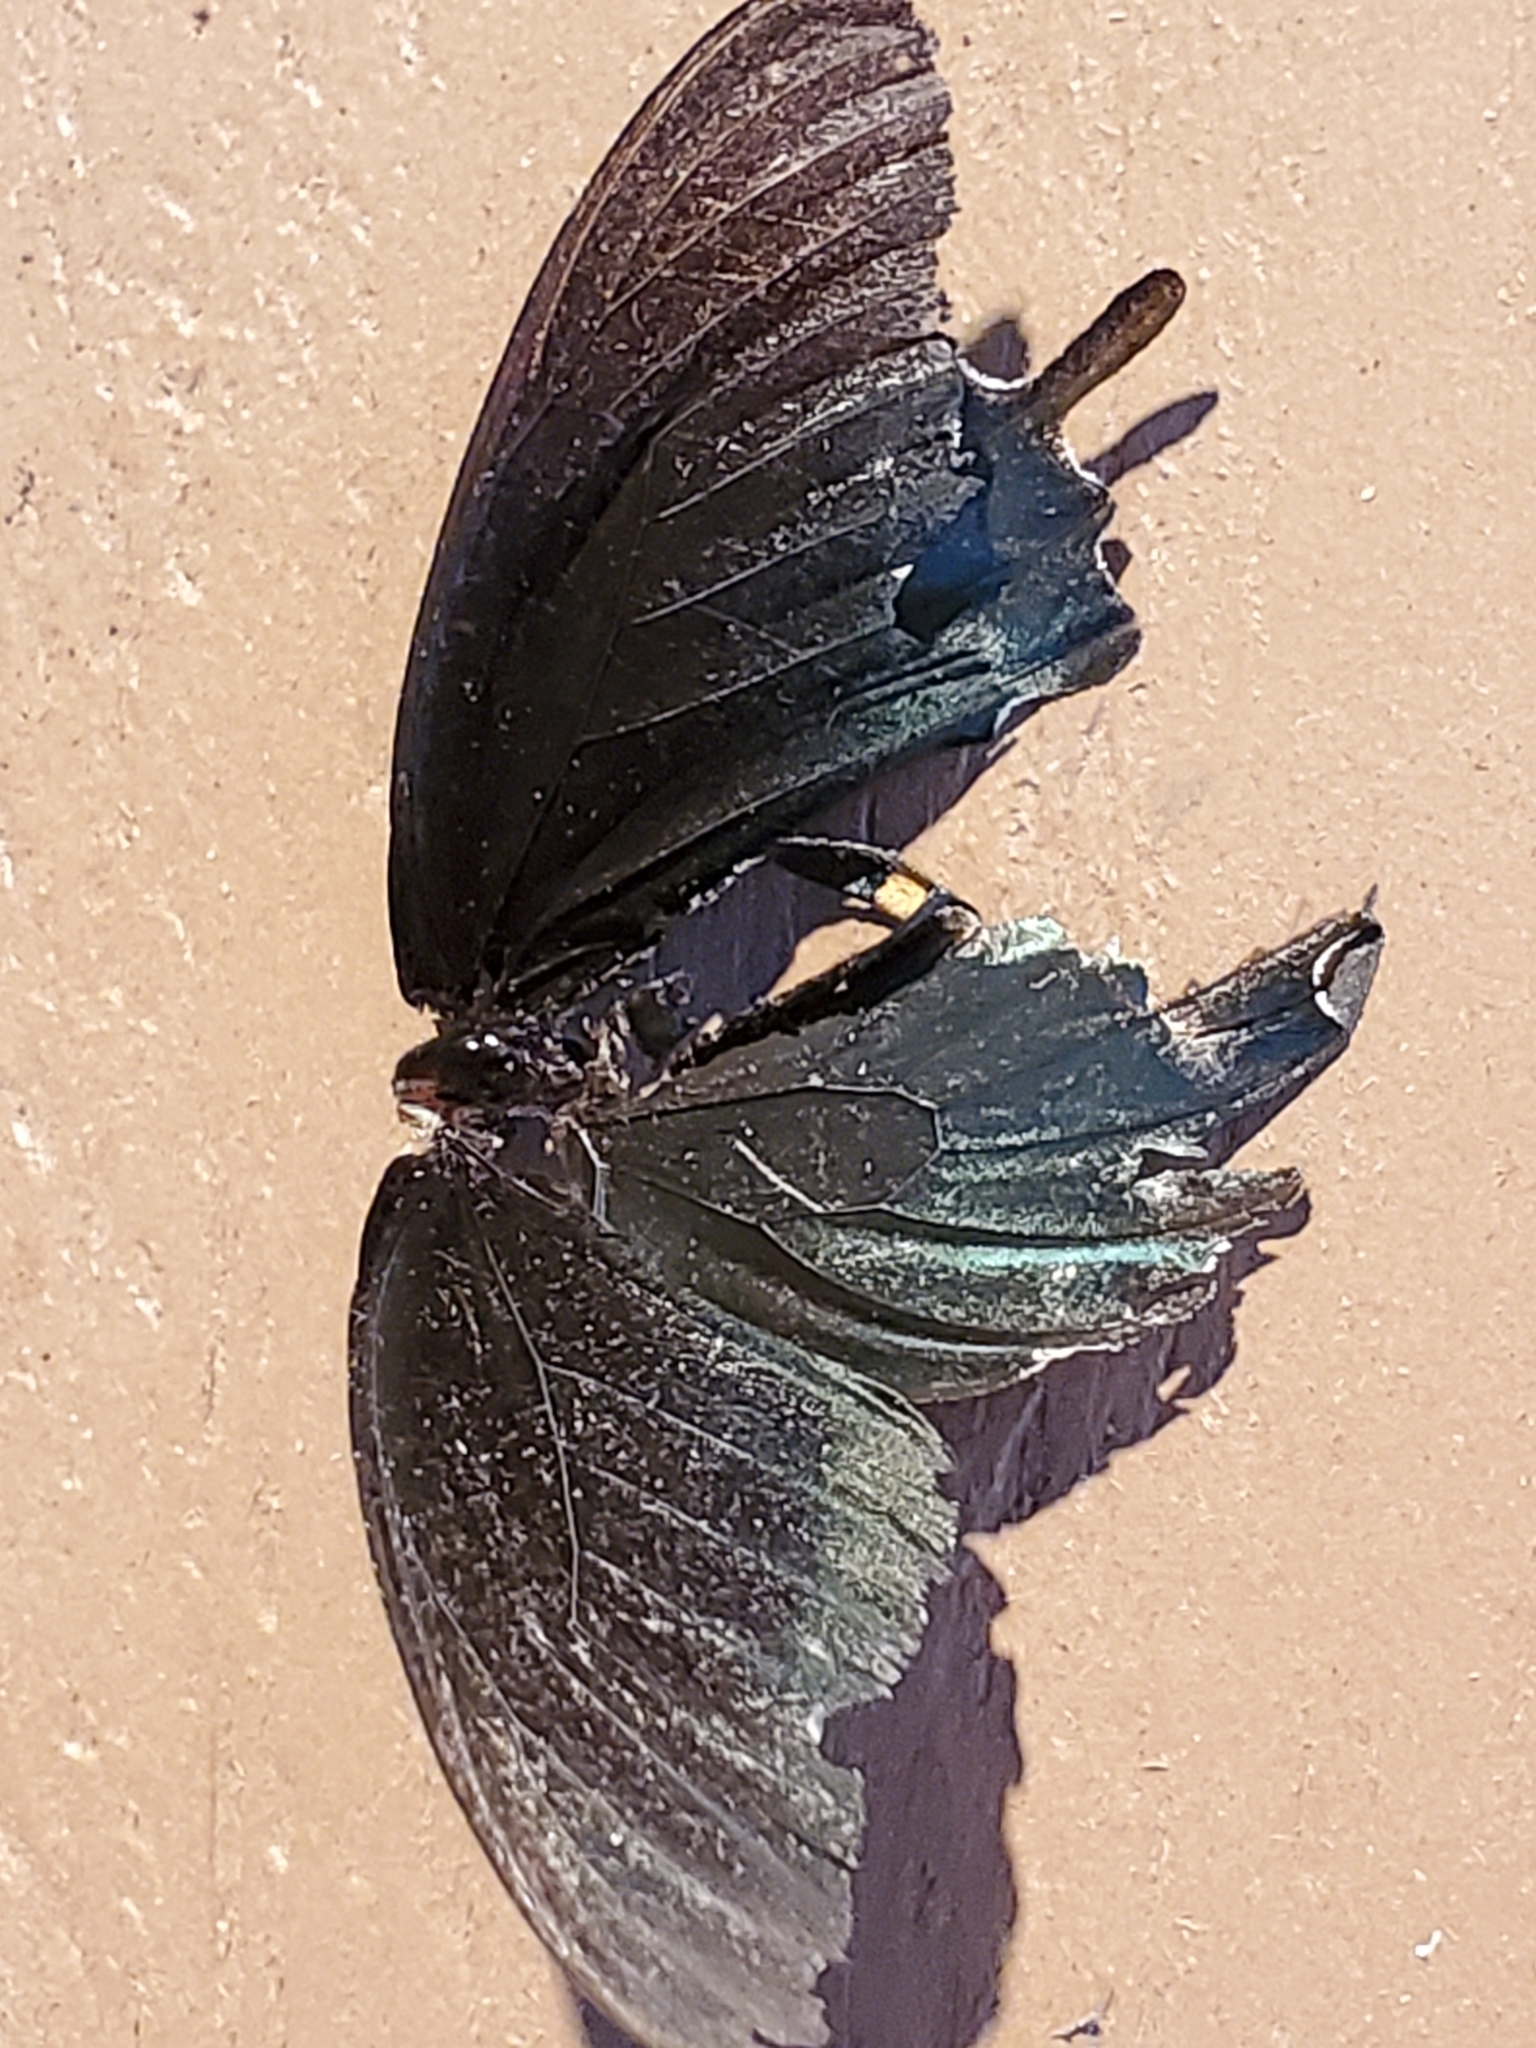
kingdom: Animalia
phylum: Arthropoda
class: Insecta
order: Lepidoptera
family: Papilionidae
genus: Battus
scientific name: Battus philenor
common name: Pipevine swallowtail
